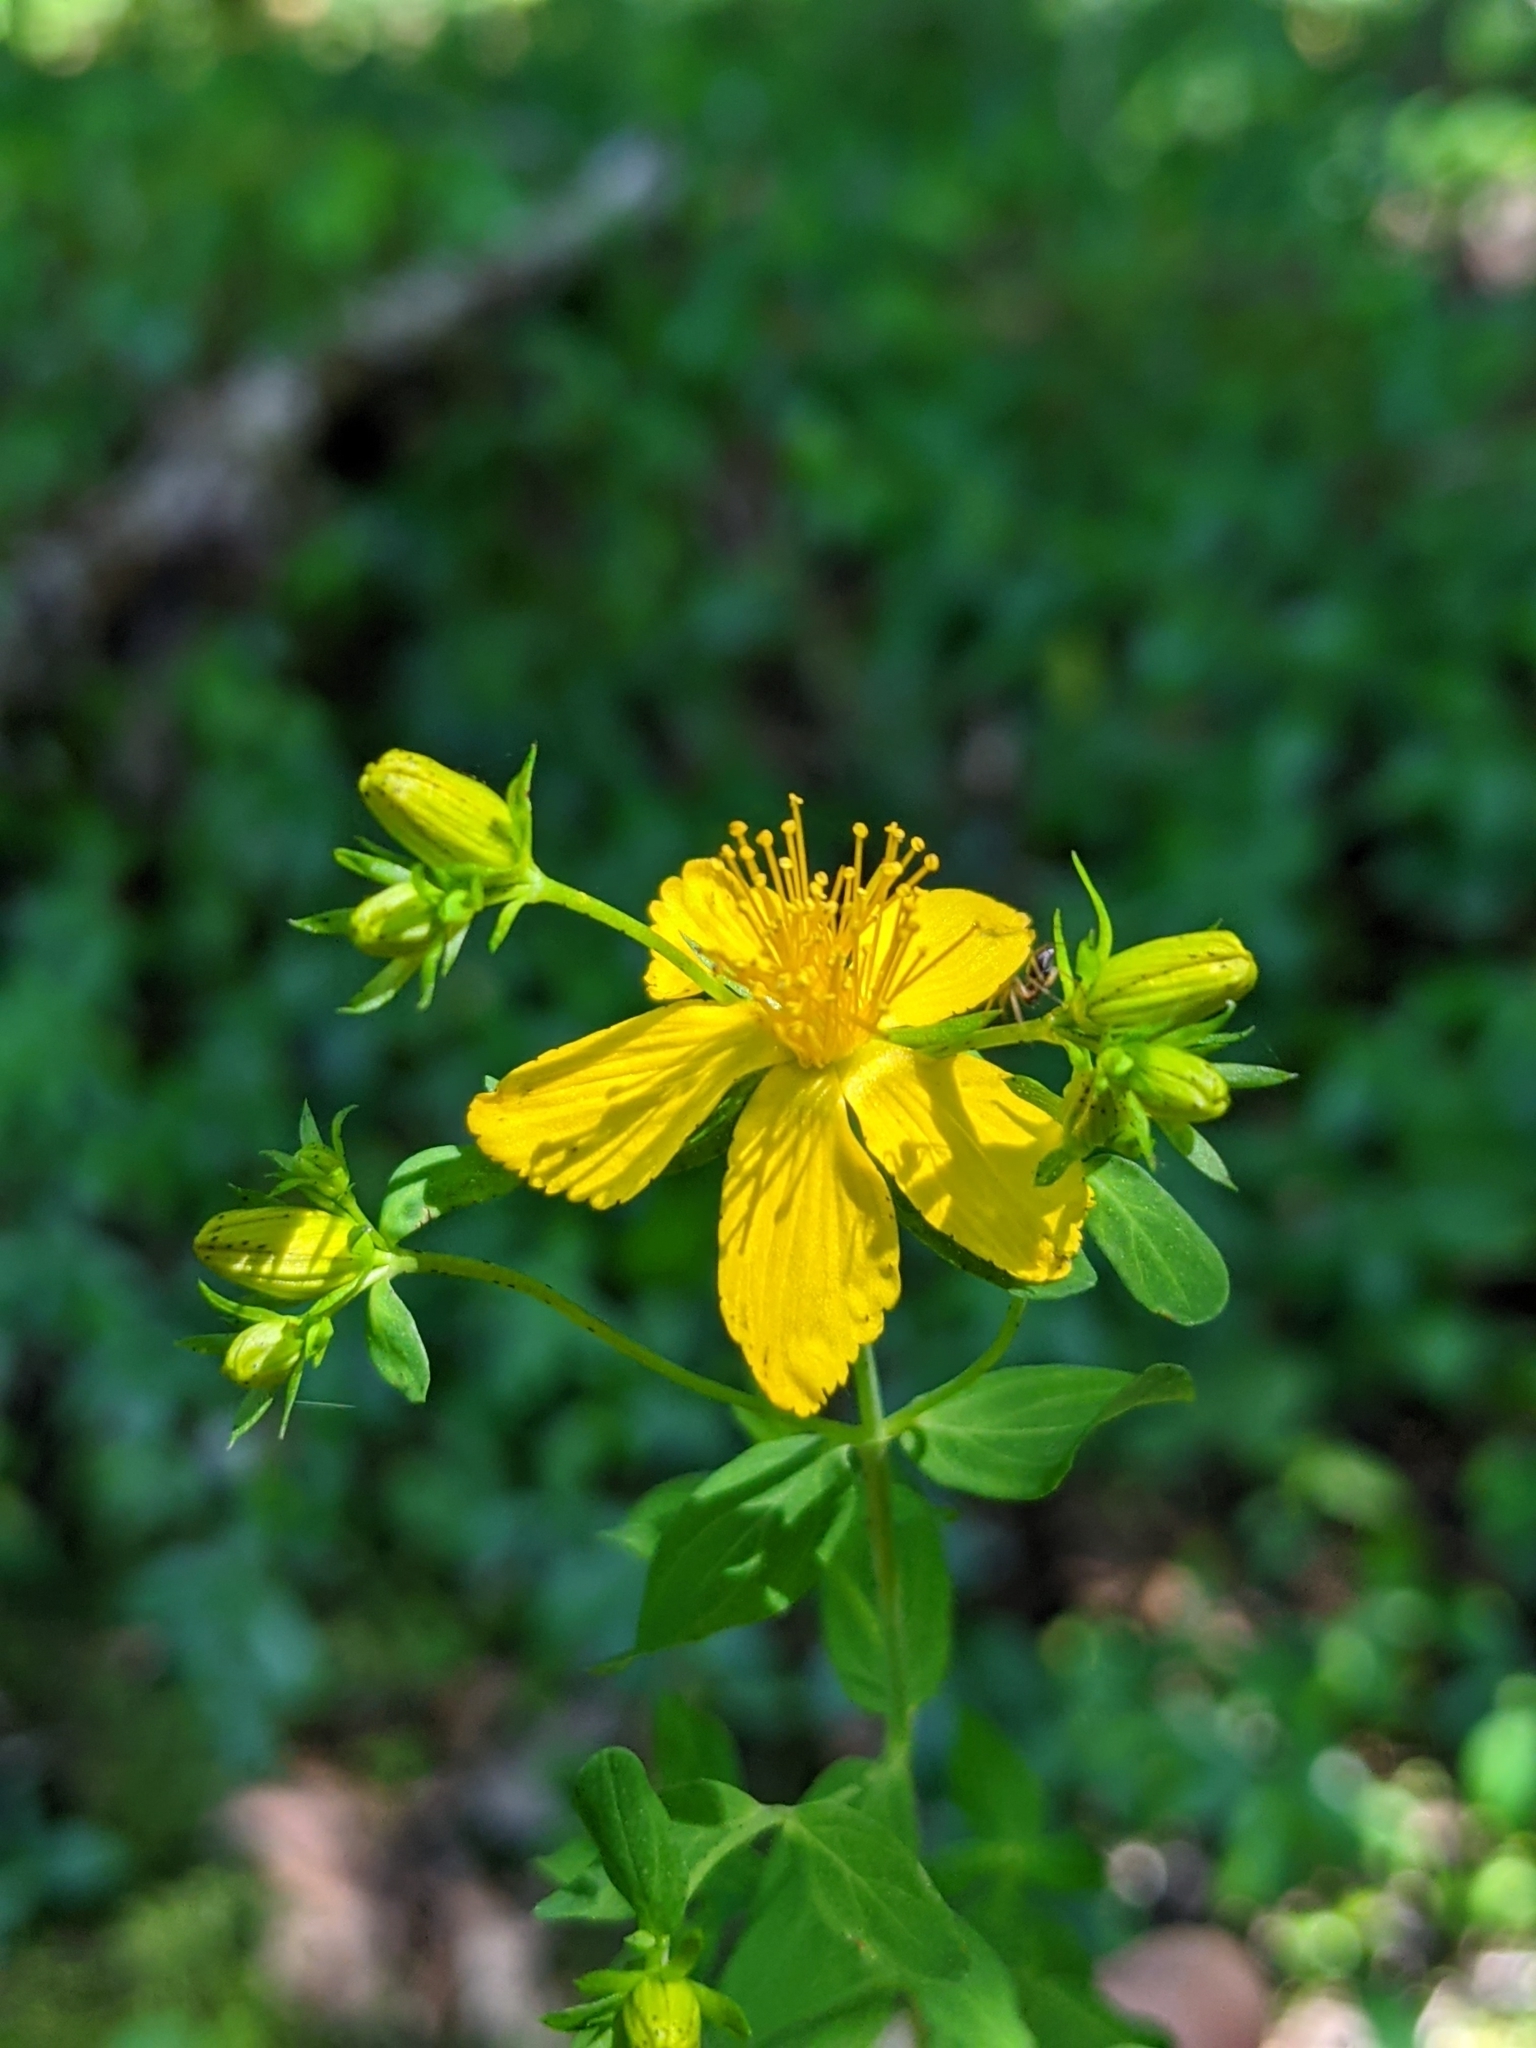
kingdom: Plantae
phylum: Tracheophyta
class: Magnoliopsida
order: Malpighiales
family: Hypericaceae
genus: Hypericum
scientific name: Hypericum perforatum
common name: Common st. johnswort
